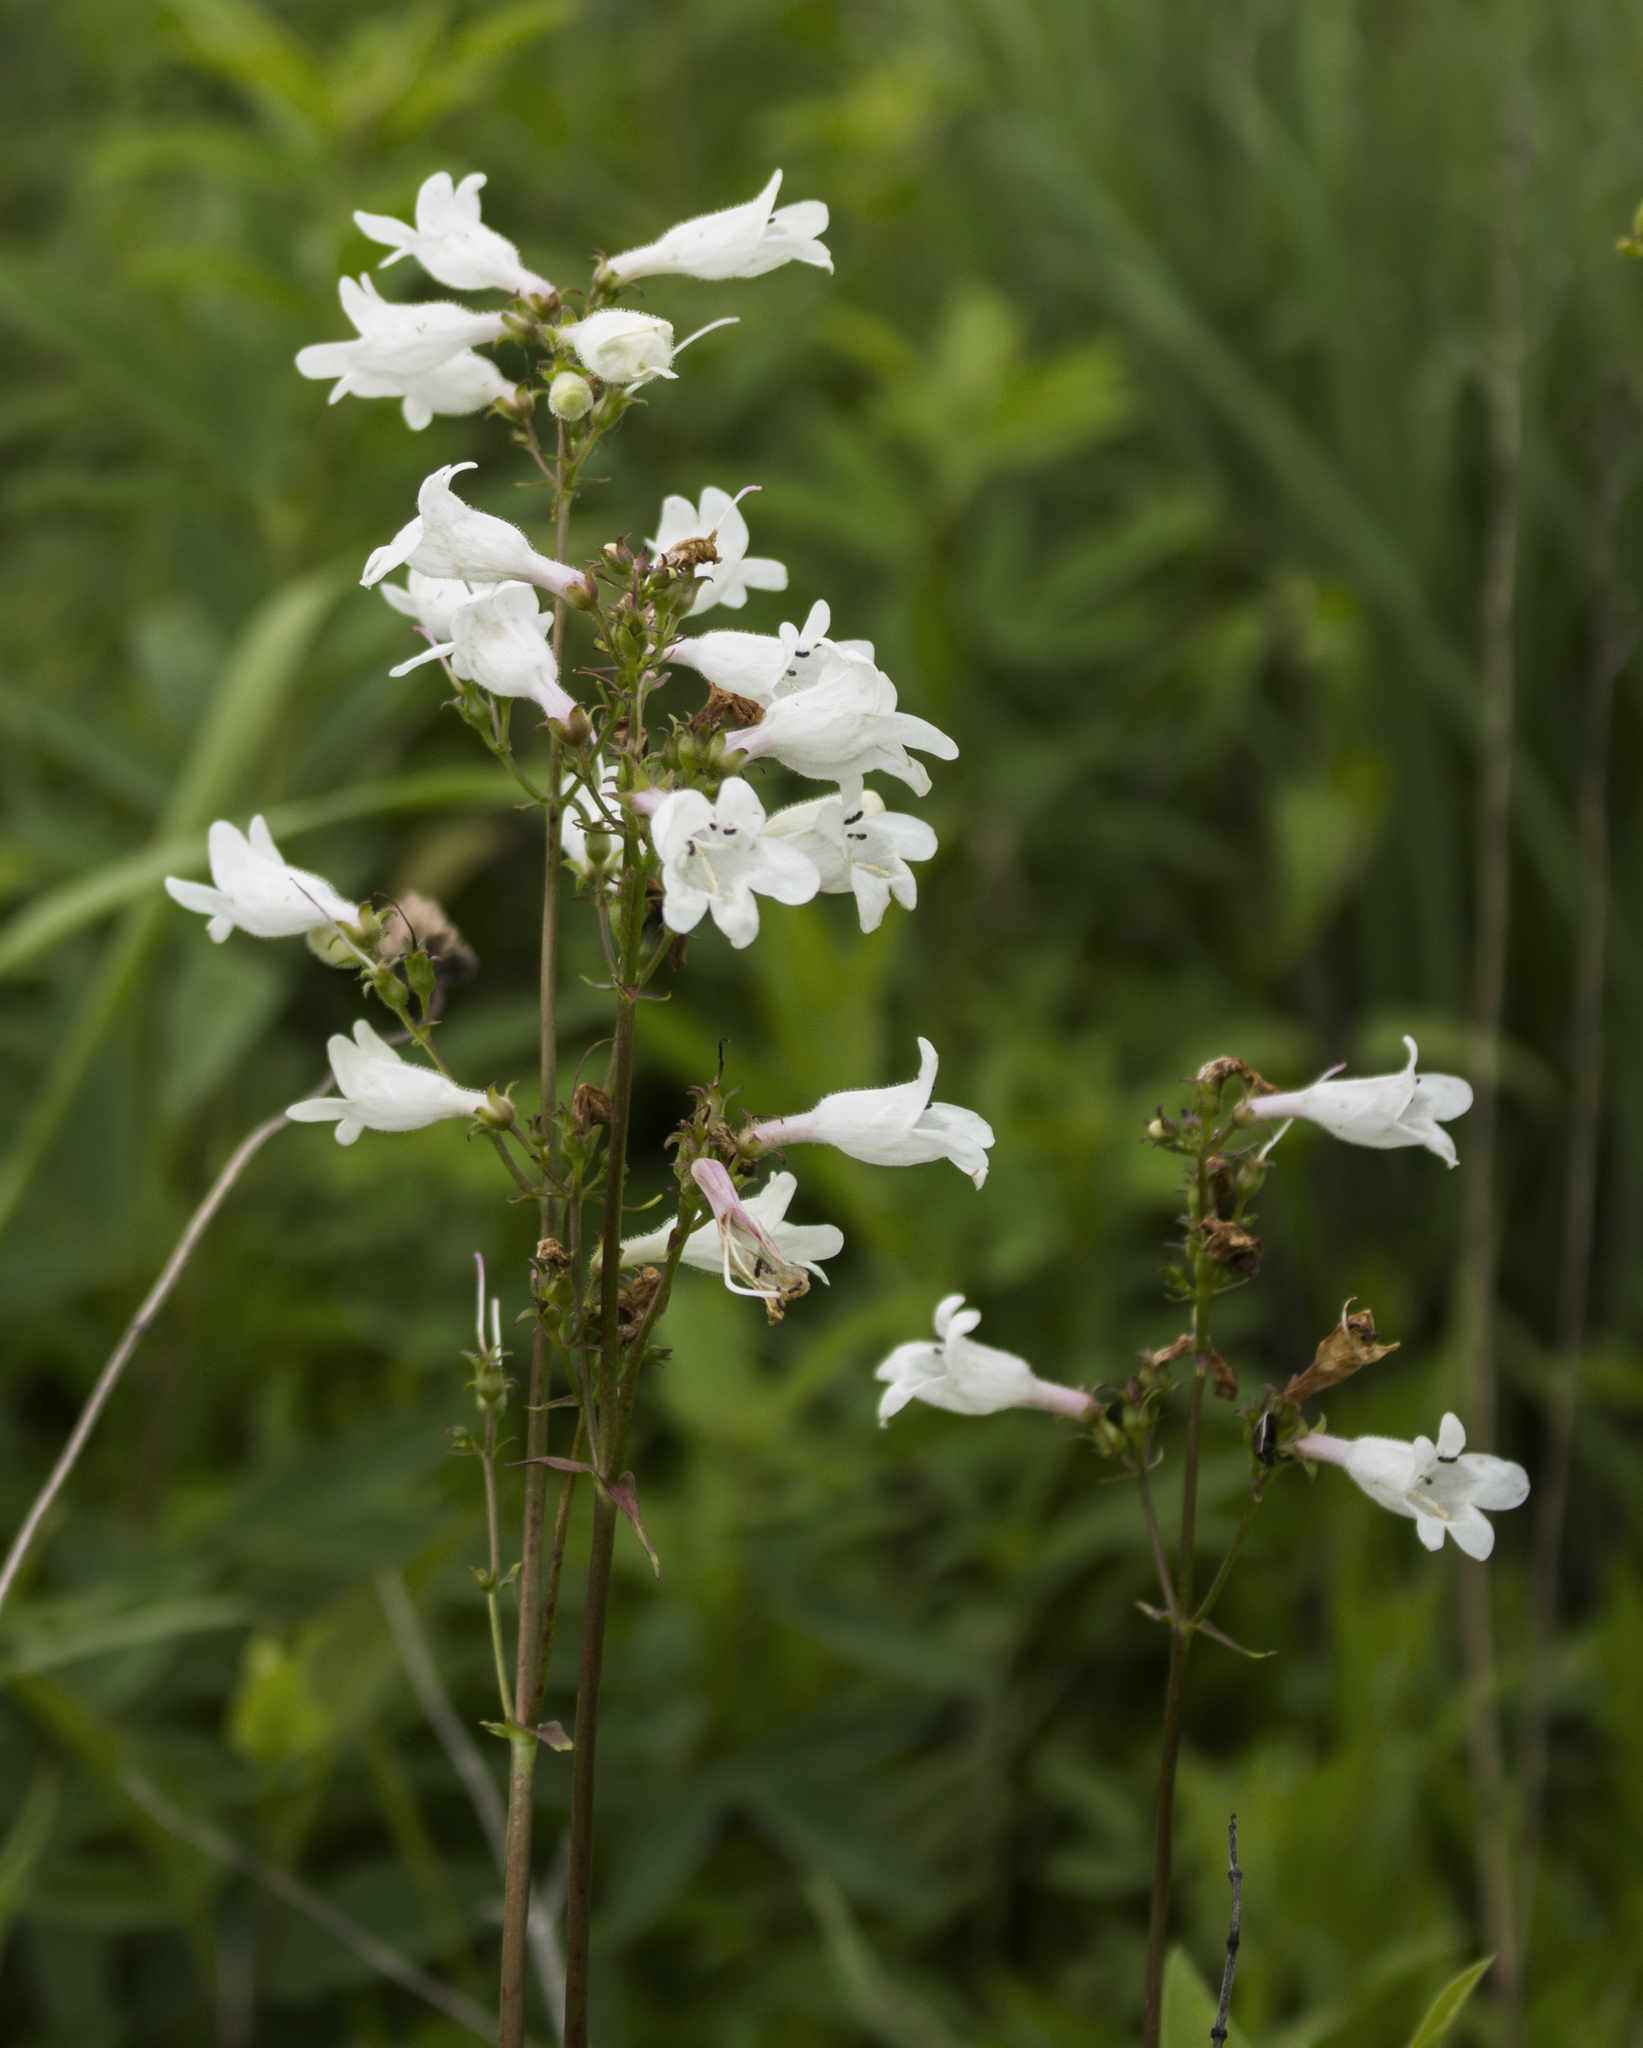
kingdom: Plantae
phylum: Tracheophyta
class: Magnoliopsida
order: Lamiales
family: Plantaginaceae
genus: Penstemon
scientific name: Penstemon digitalis
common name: Foxglove beardtongue
